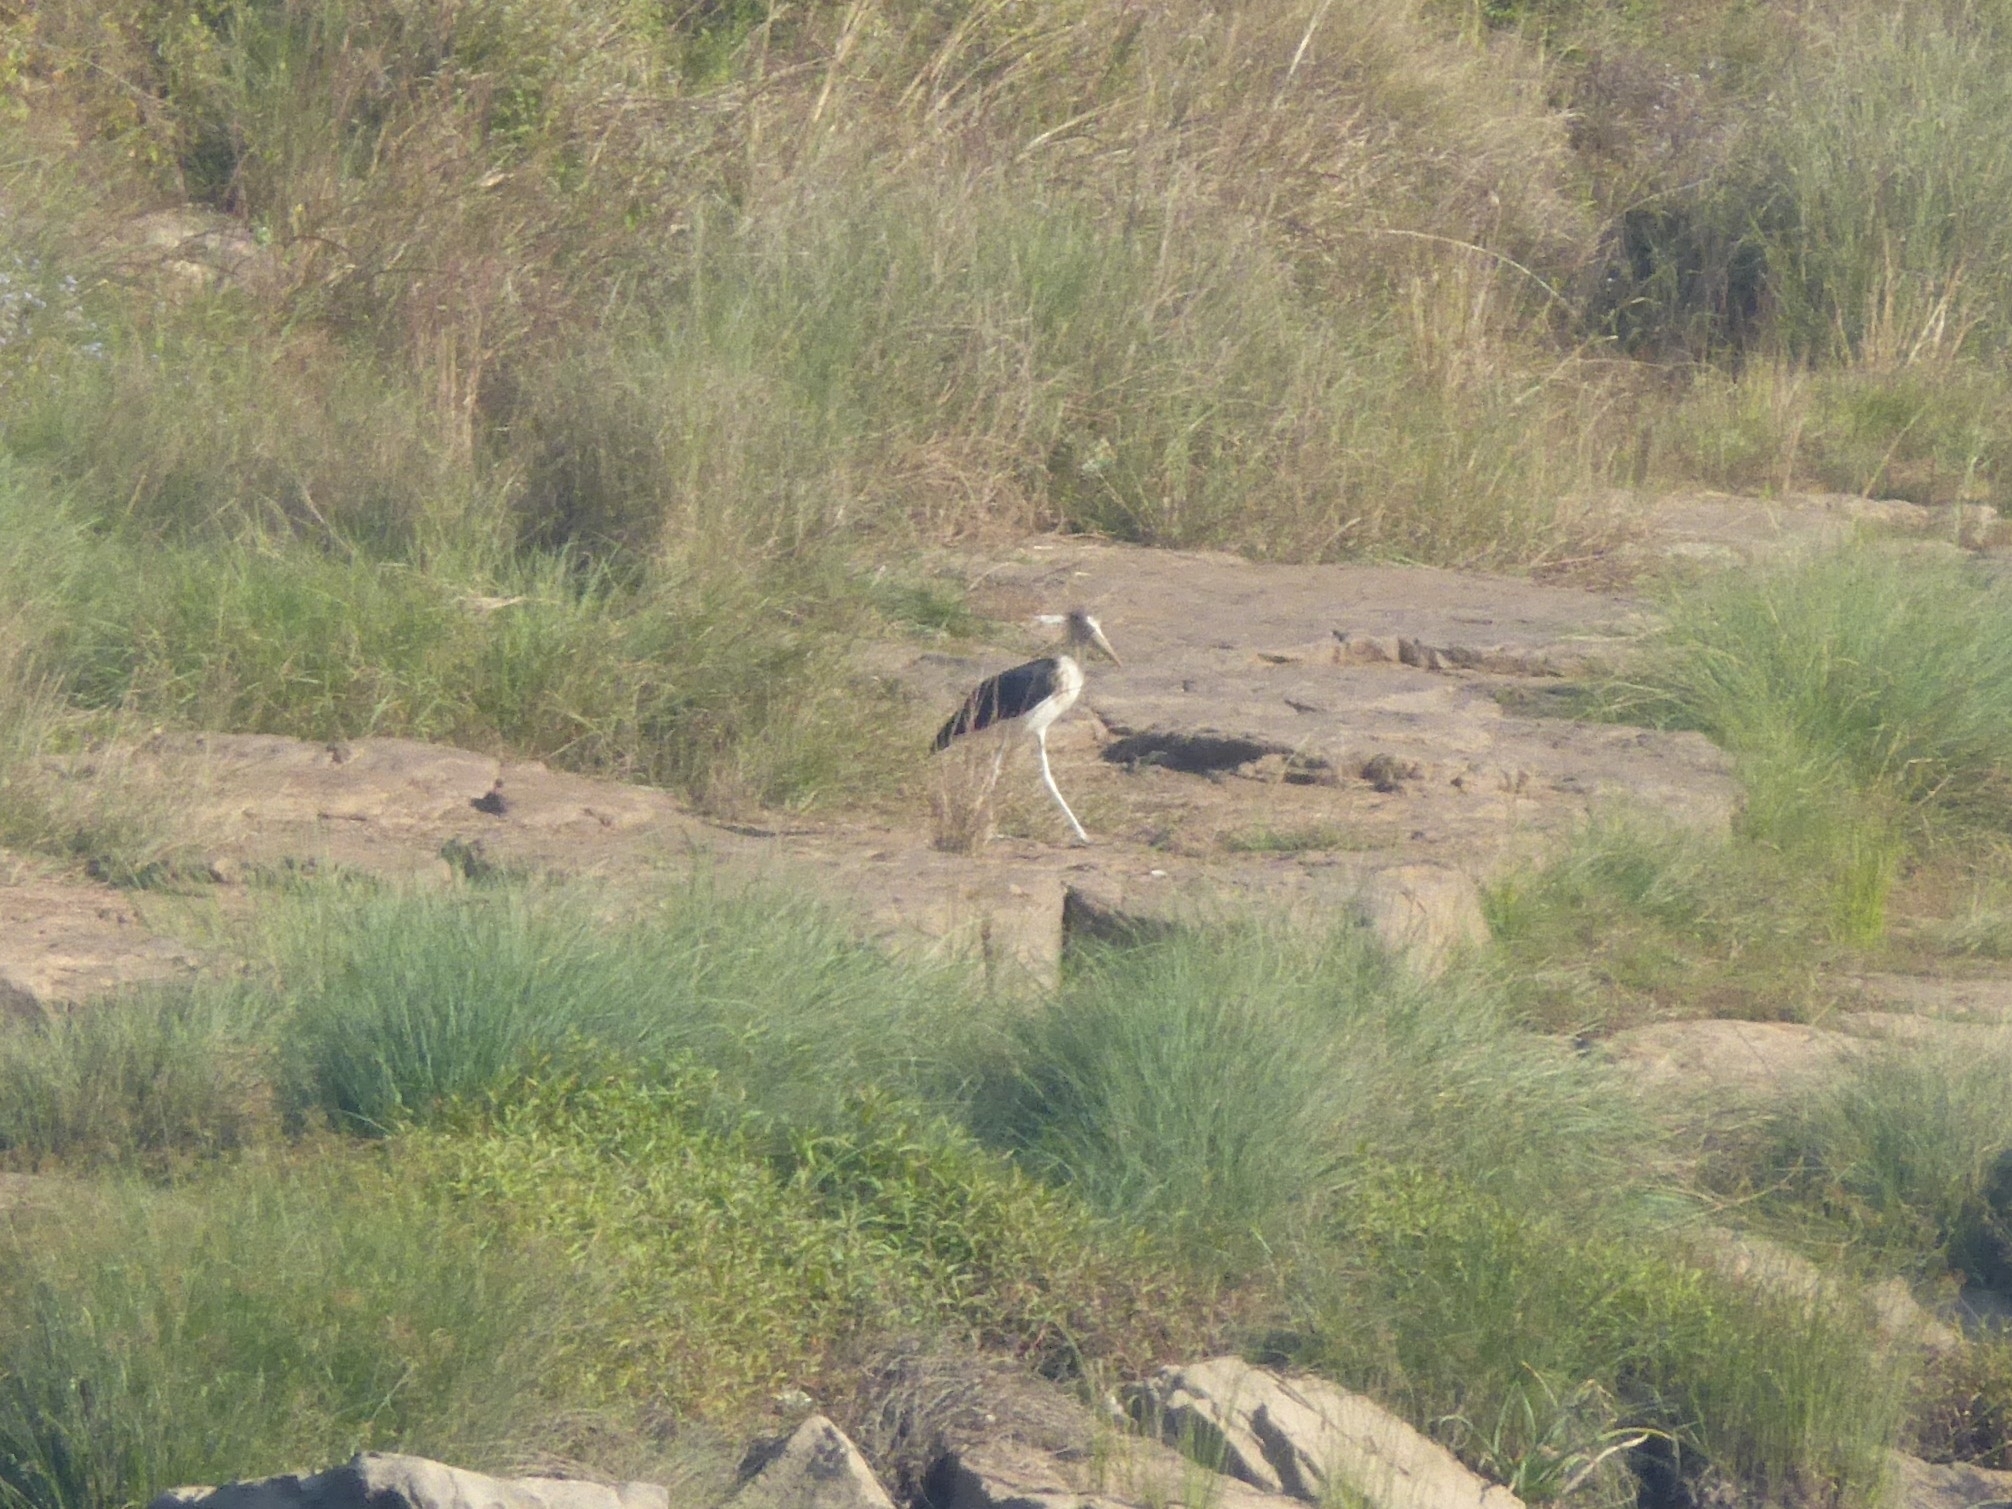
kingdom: Animalia
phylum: Chordata
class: Aves
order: Ciconiiformes
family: Ciconiidae
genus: Leptoptilos
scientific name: Leptoptilos javanicus
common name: Lesser adjutant
